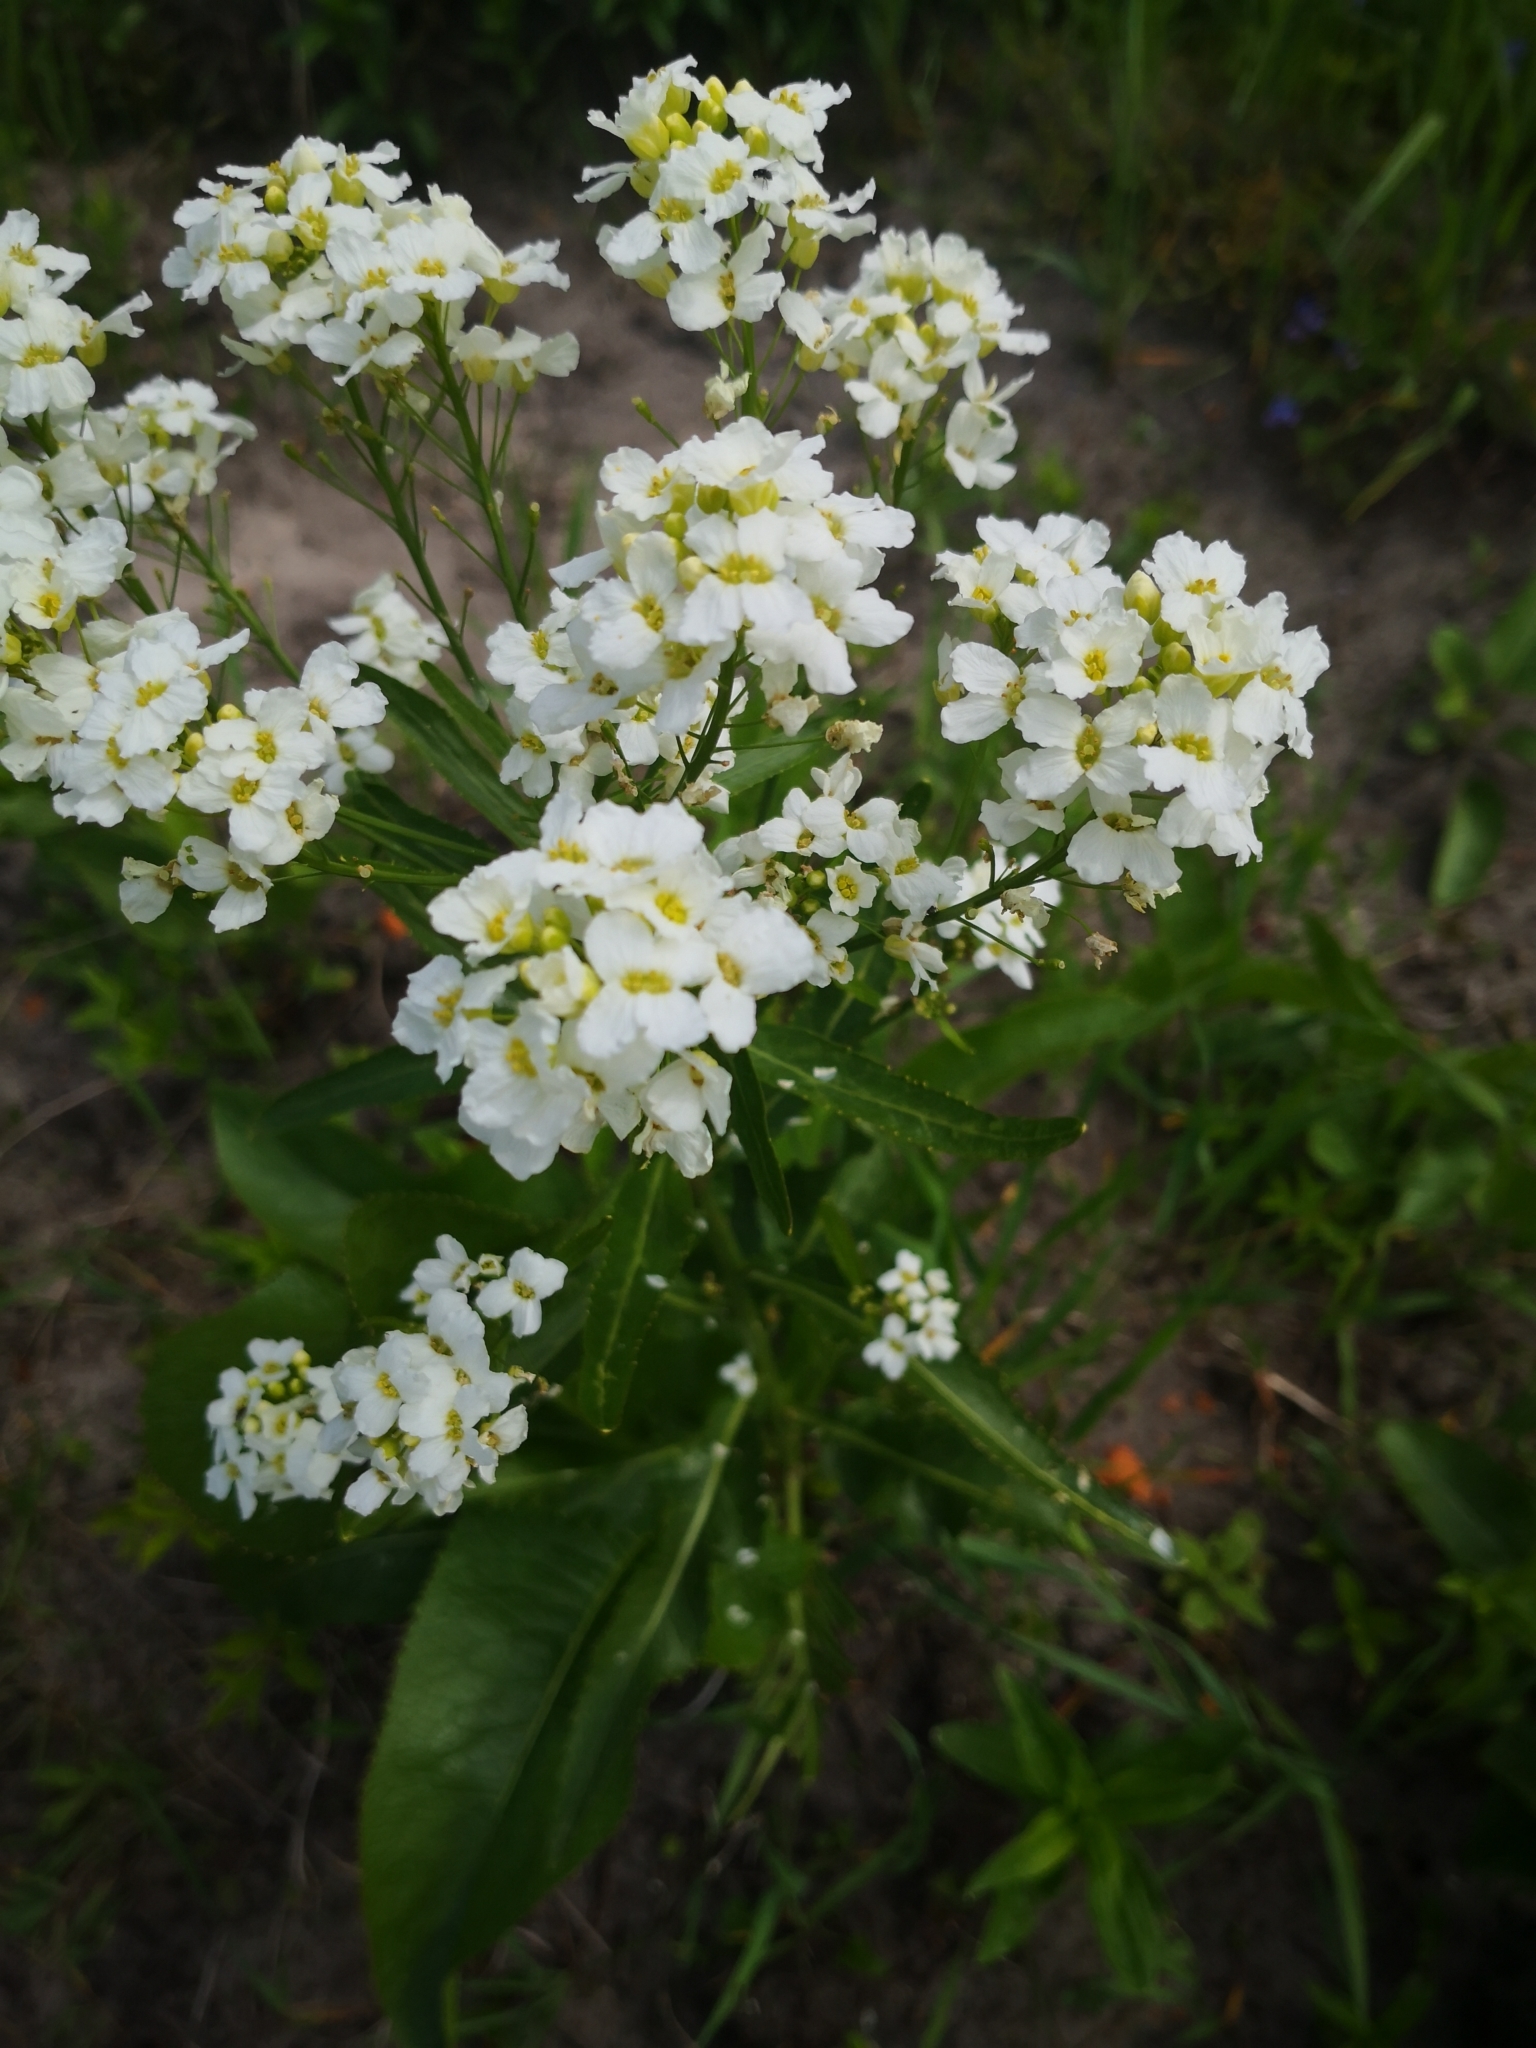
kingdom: Plantae
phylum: Tracheophyta
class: Magnoliopsida
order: Brassicales
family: Brassicaceae
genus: Armoracia
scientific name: Armoracia rusticana
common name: Horseradish
